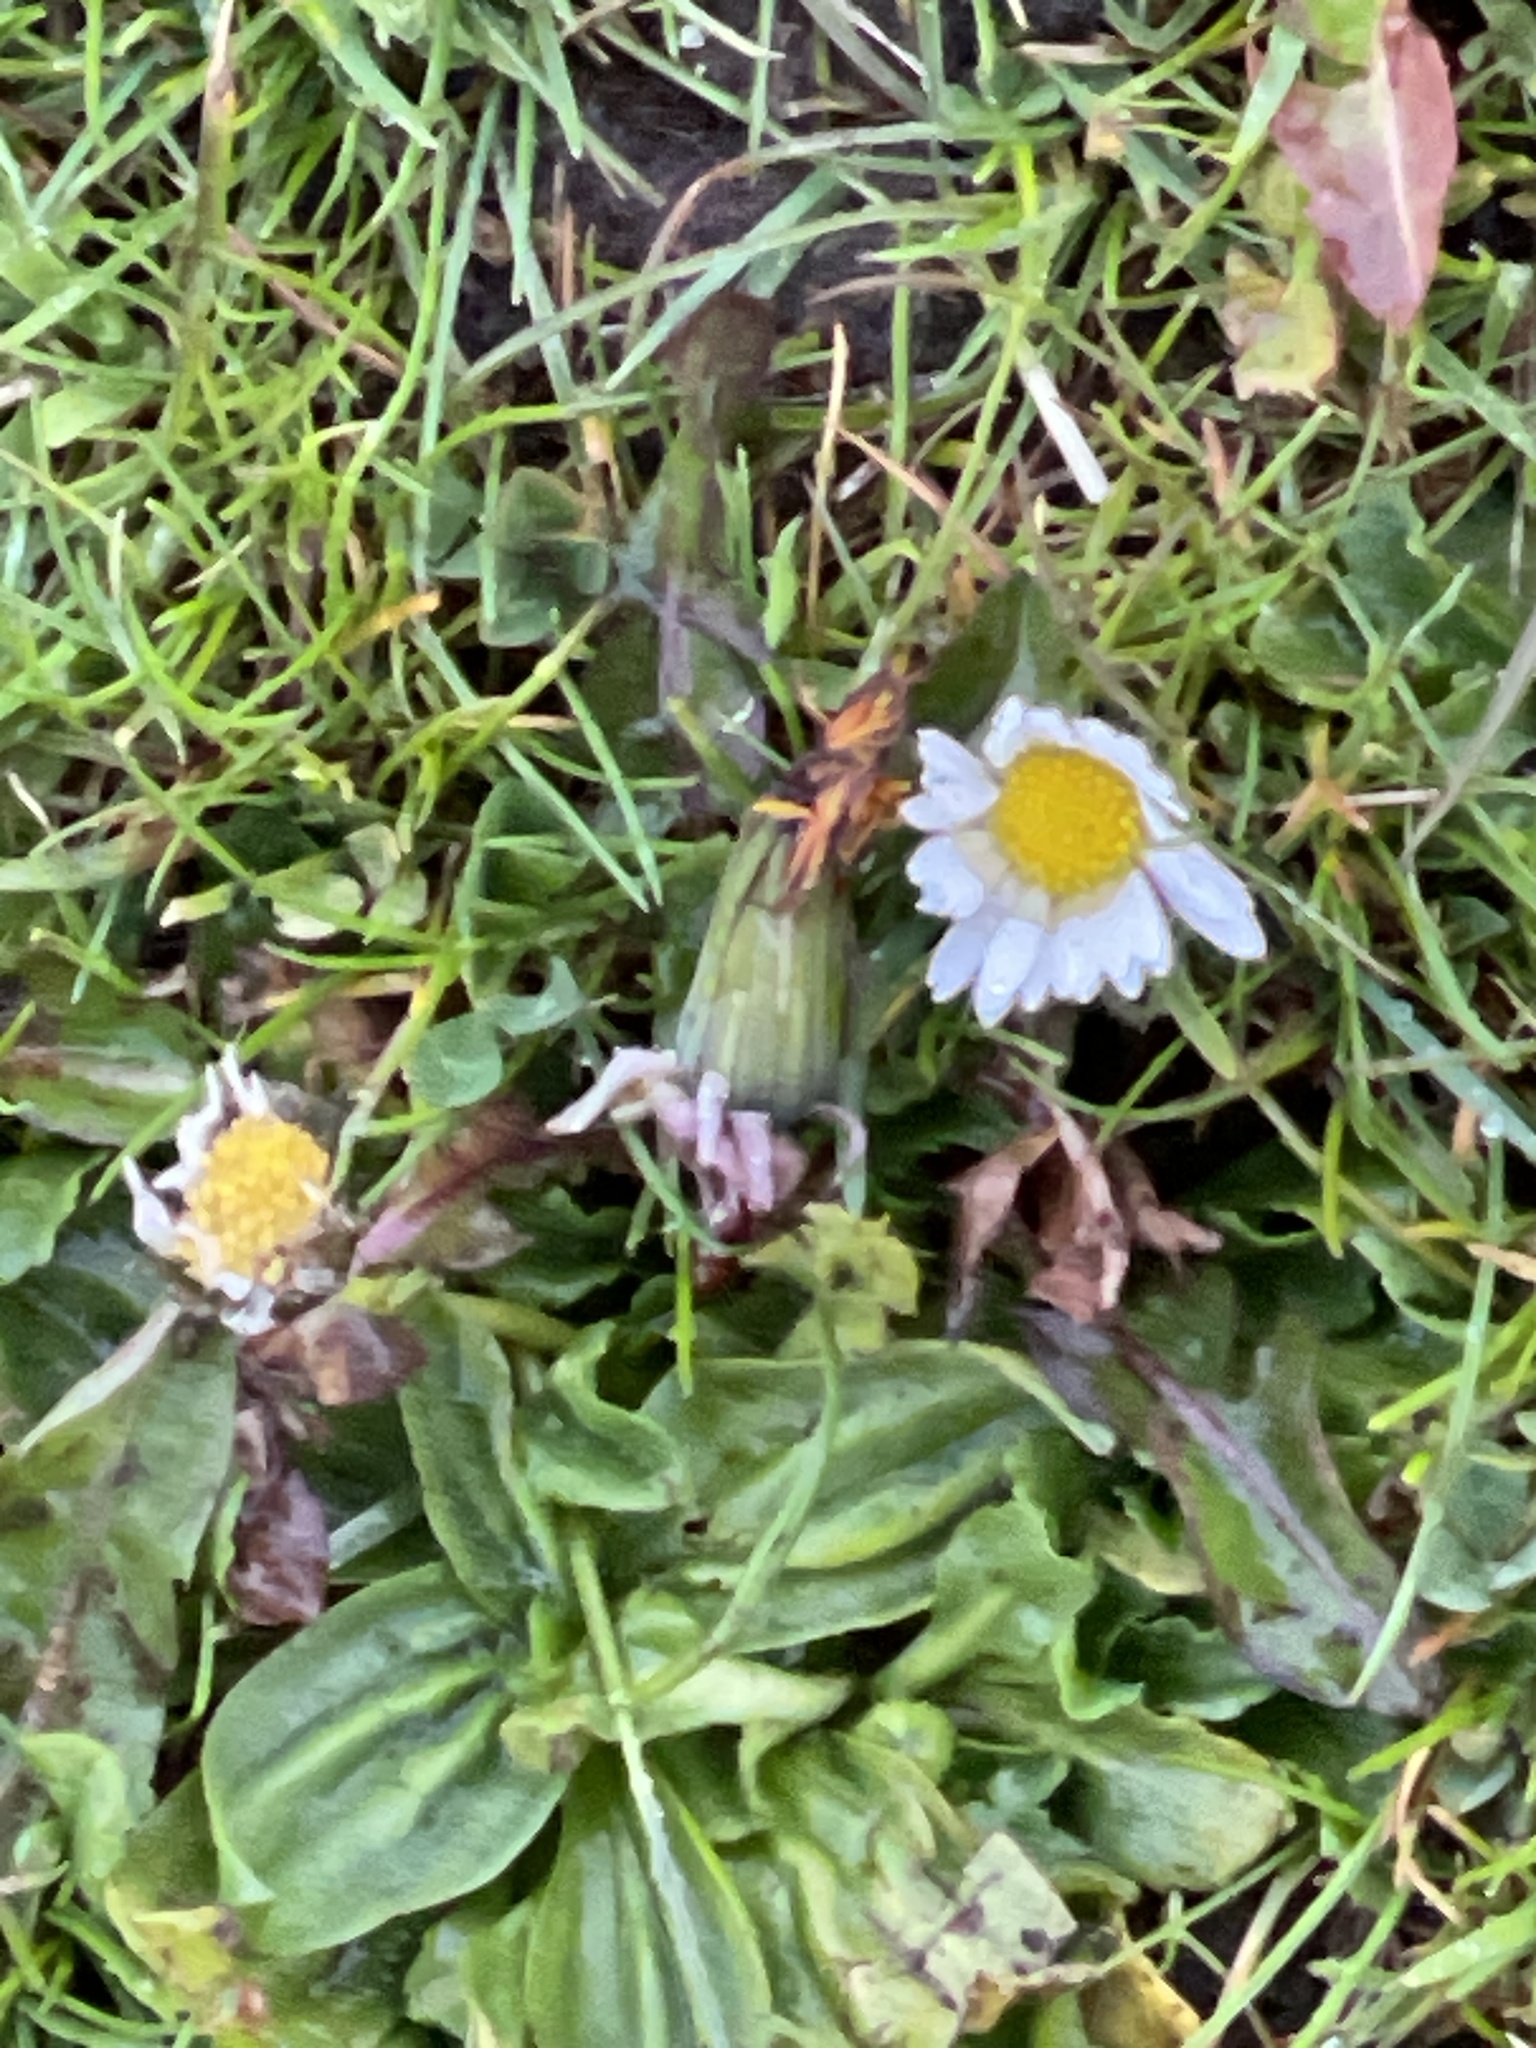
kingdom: Plantae
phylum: Tracheophyta
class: Magnoliopsida
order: Asterales
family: Asteraceae
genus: Bellis
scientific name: Bellis perennis
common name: Lawndaisy
